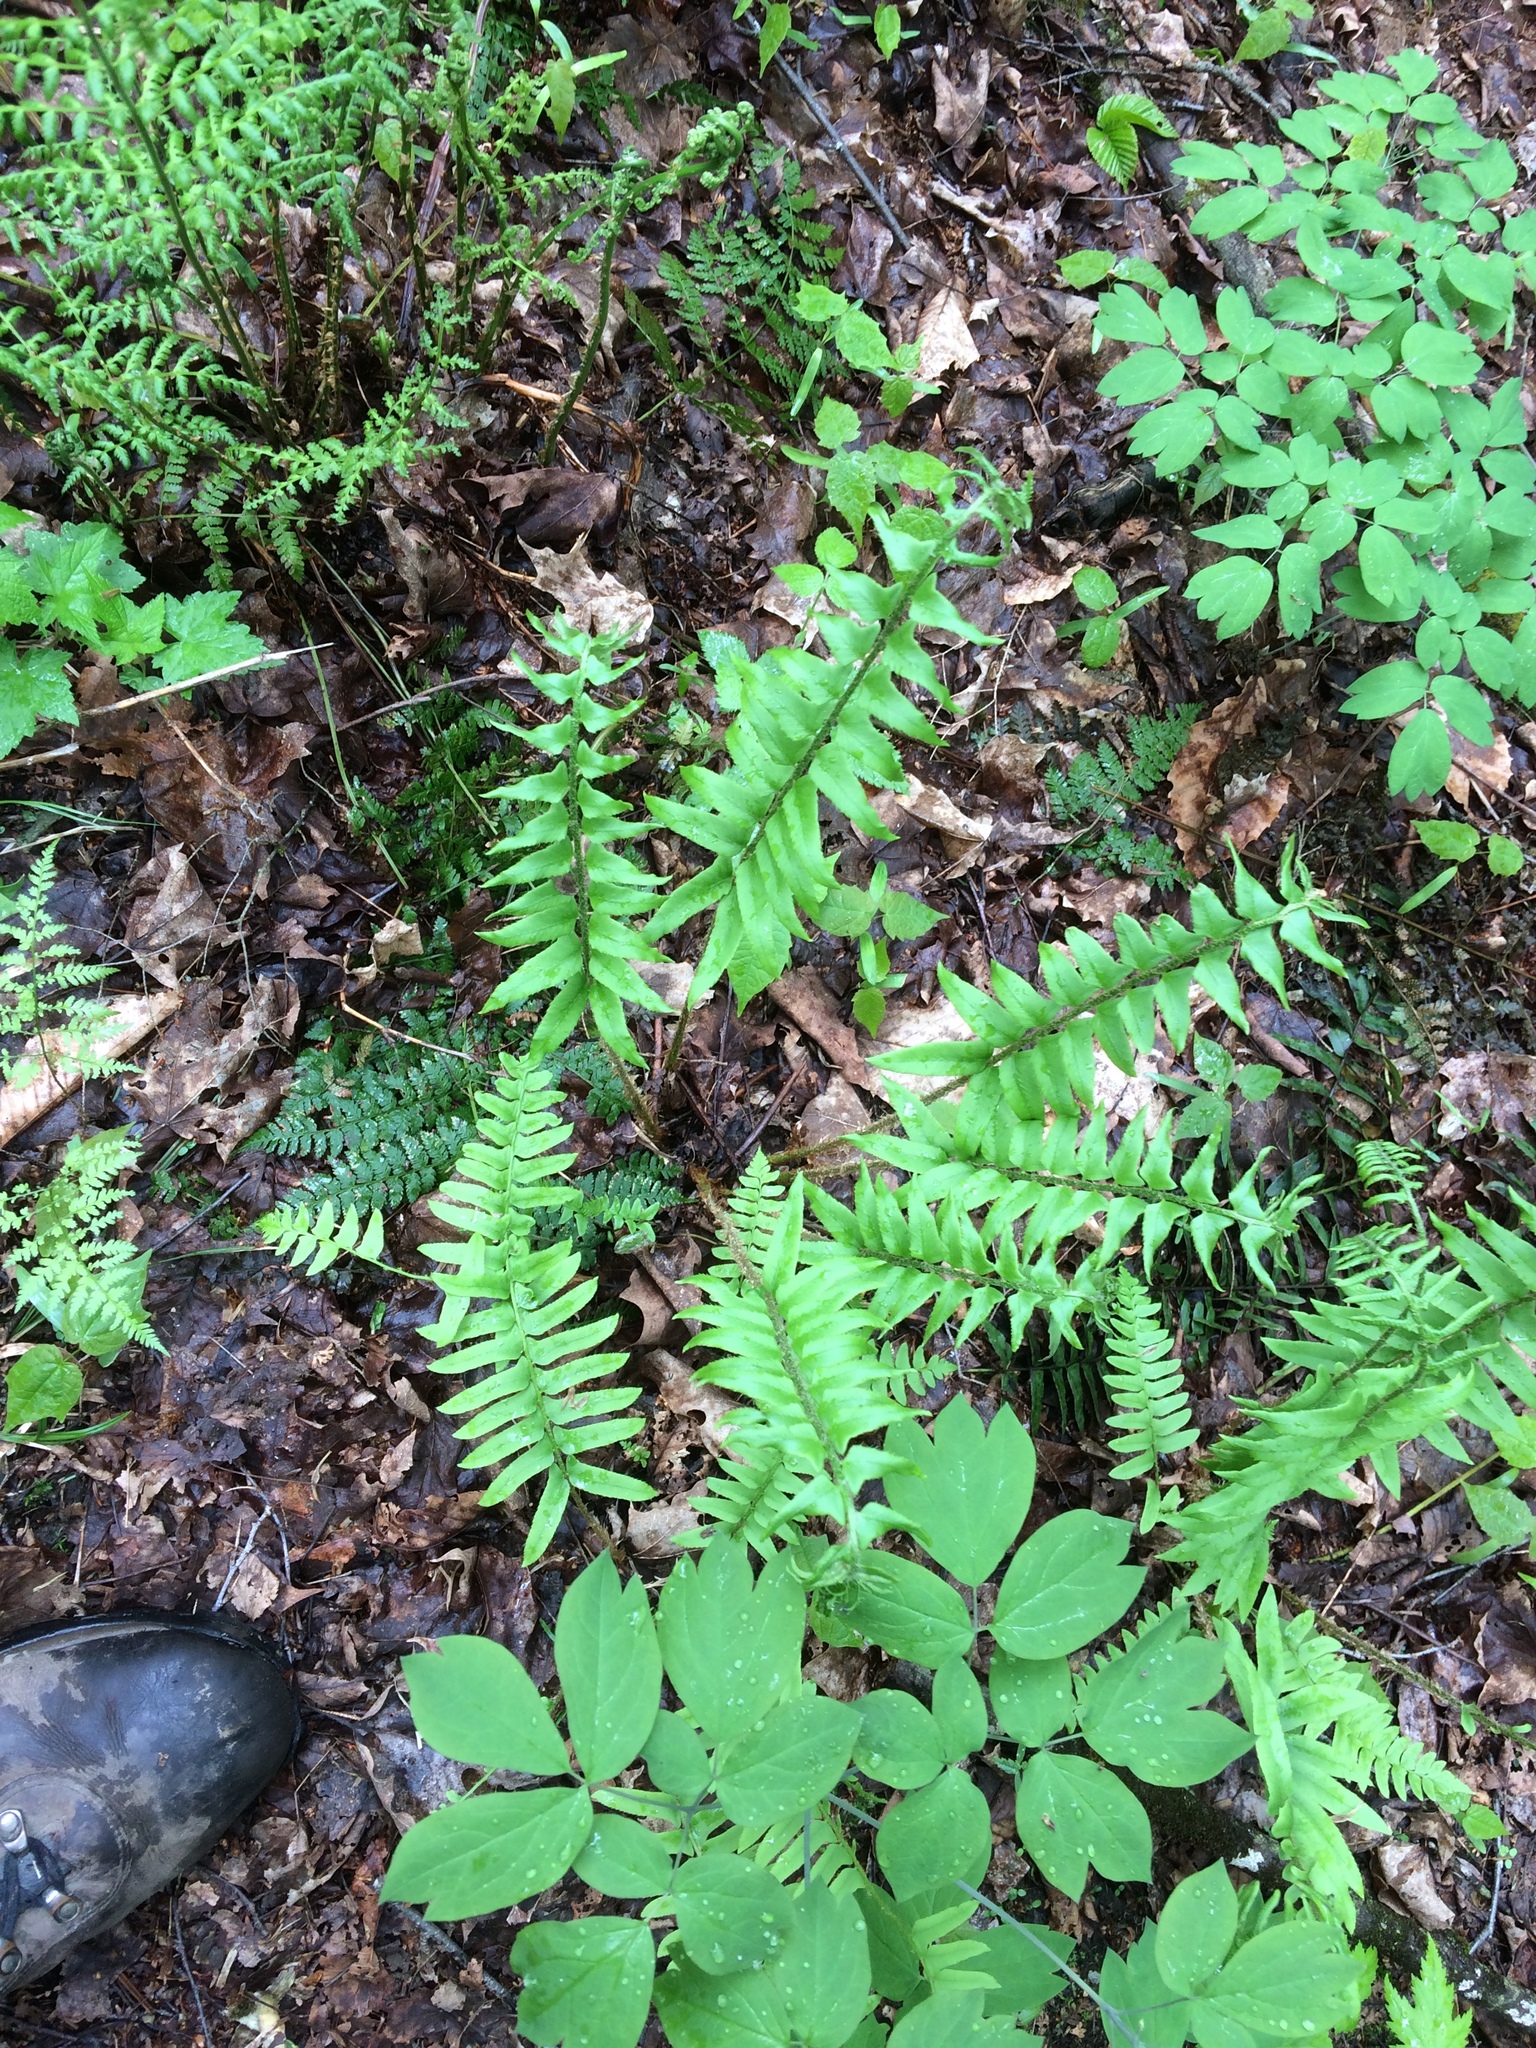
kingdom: Plantae
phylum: Tracheophyta
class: Polypodiopsida
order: Polypodiales
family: Dryopteridaceae
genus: Polystichum
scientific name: Polystichum acrostichoides
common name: Christmas fern
